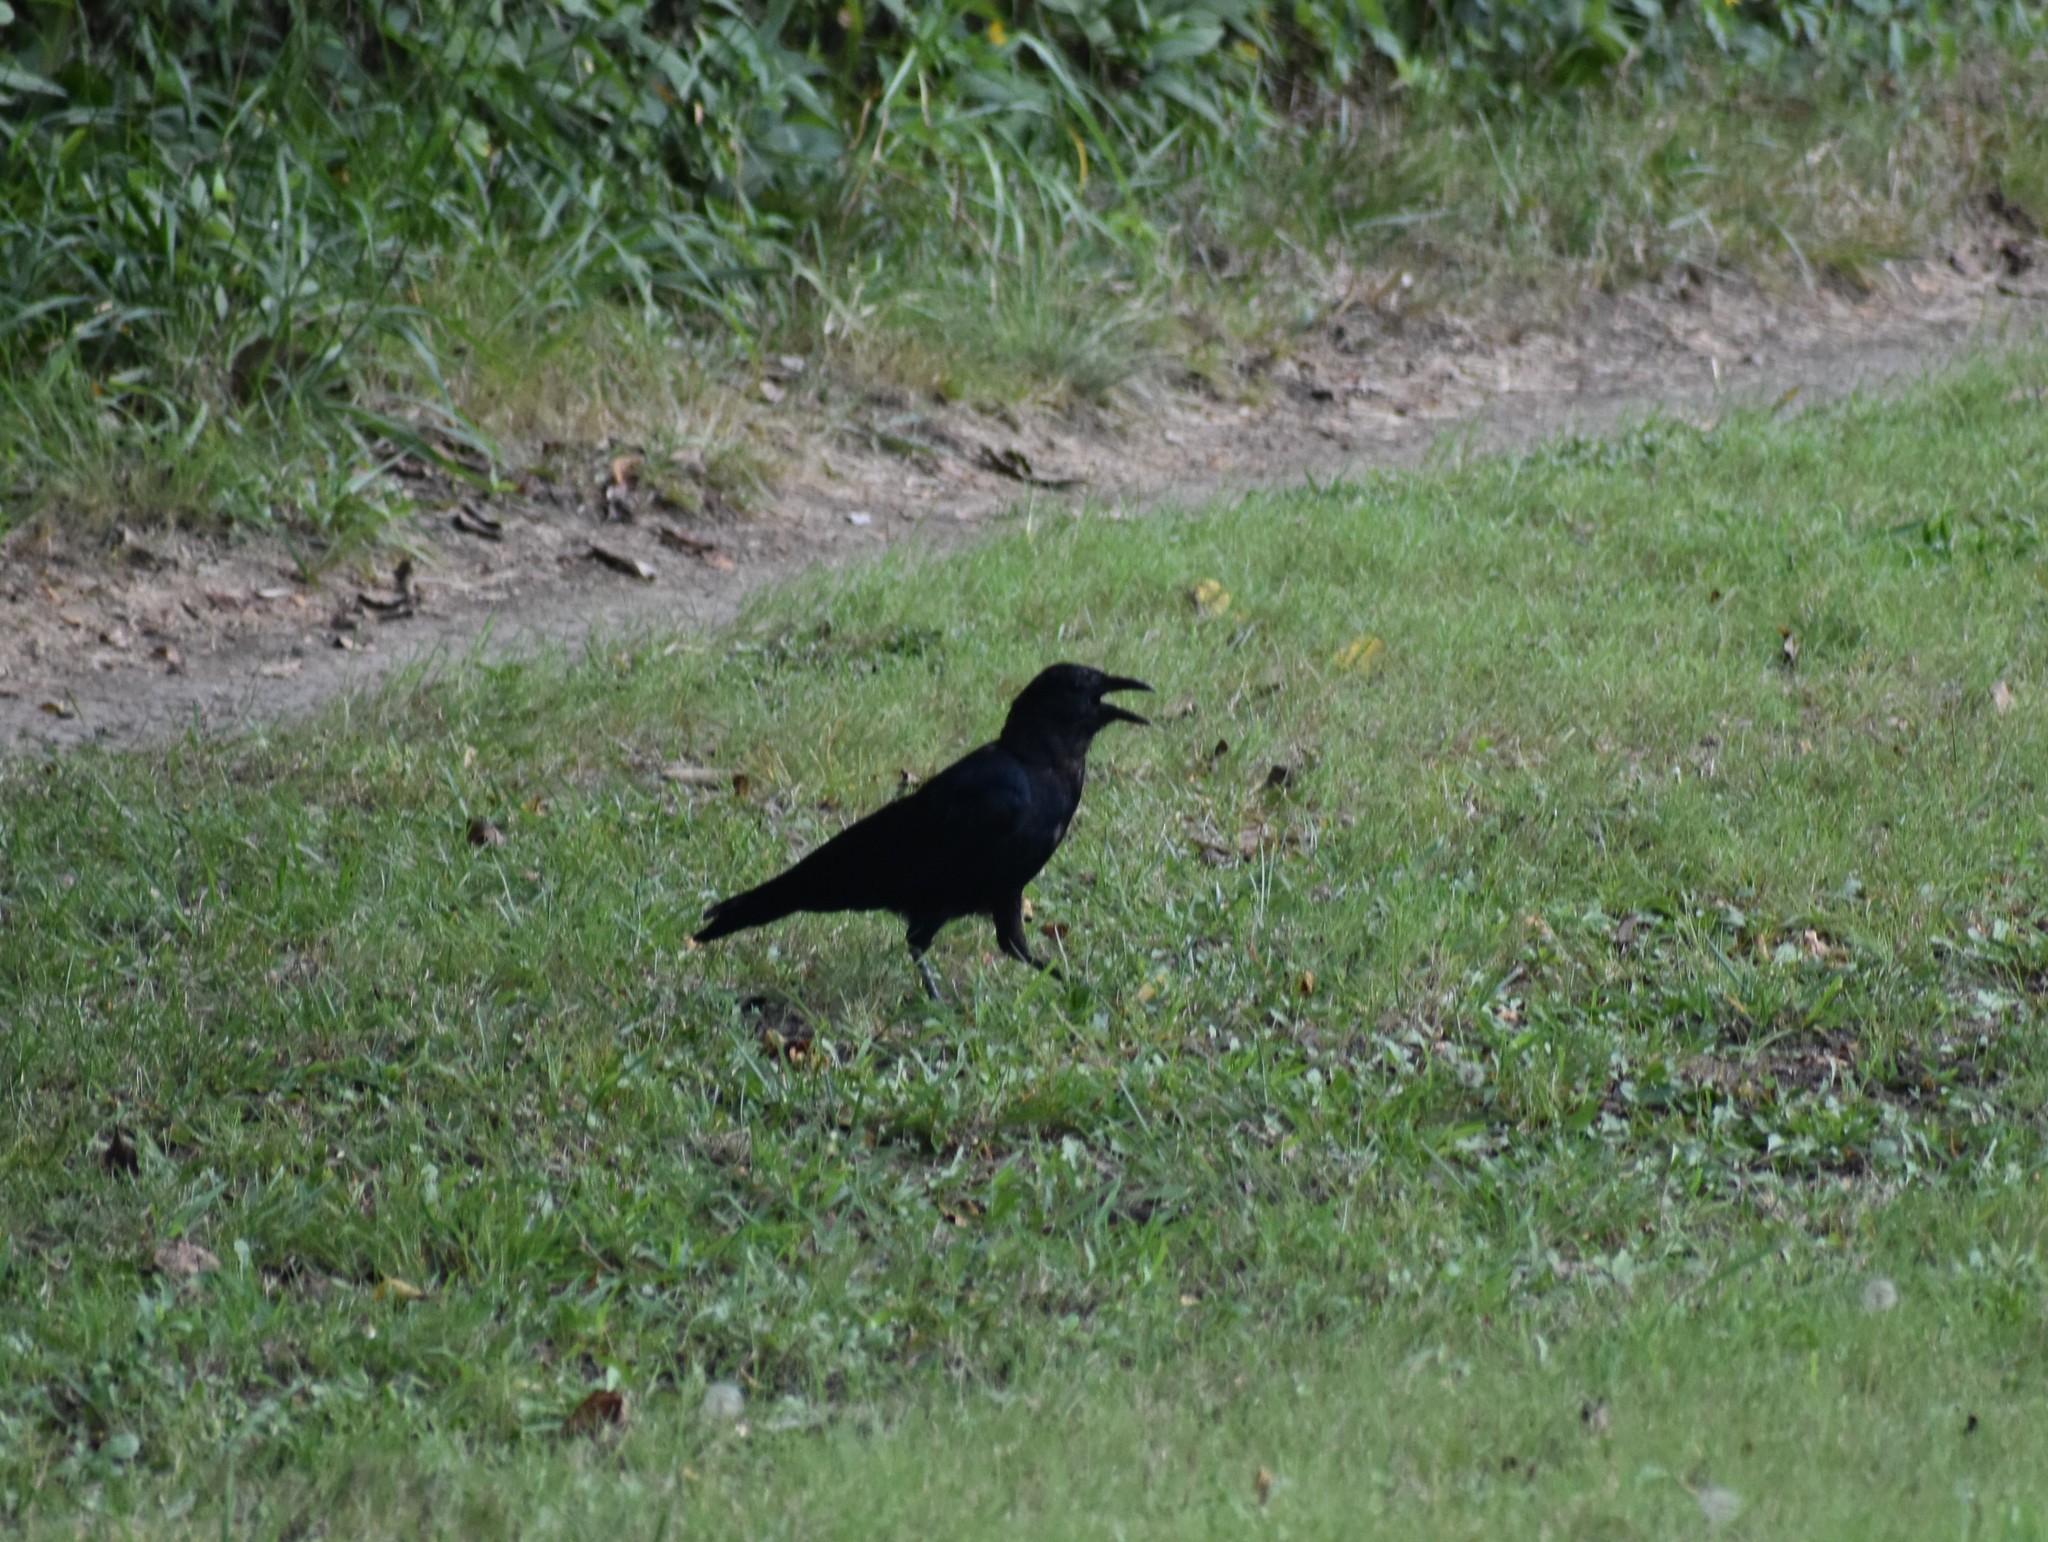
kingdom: Animalia
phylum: Chordata
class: Aves
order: Passeriformes
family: Corvidae
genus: Corvus
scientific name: Corvus brachyrhynchos
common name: American crow
